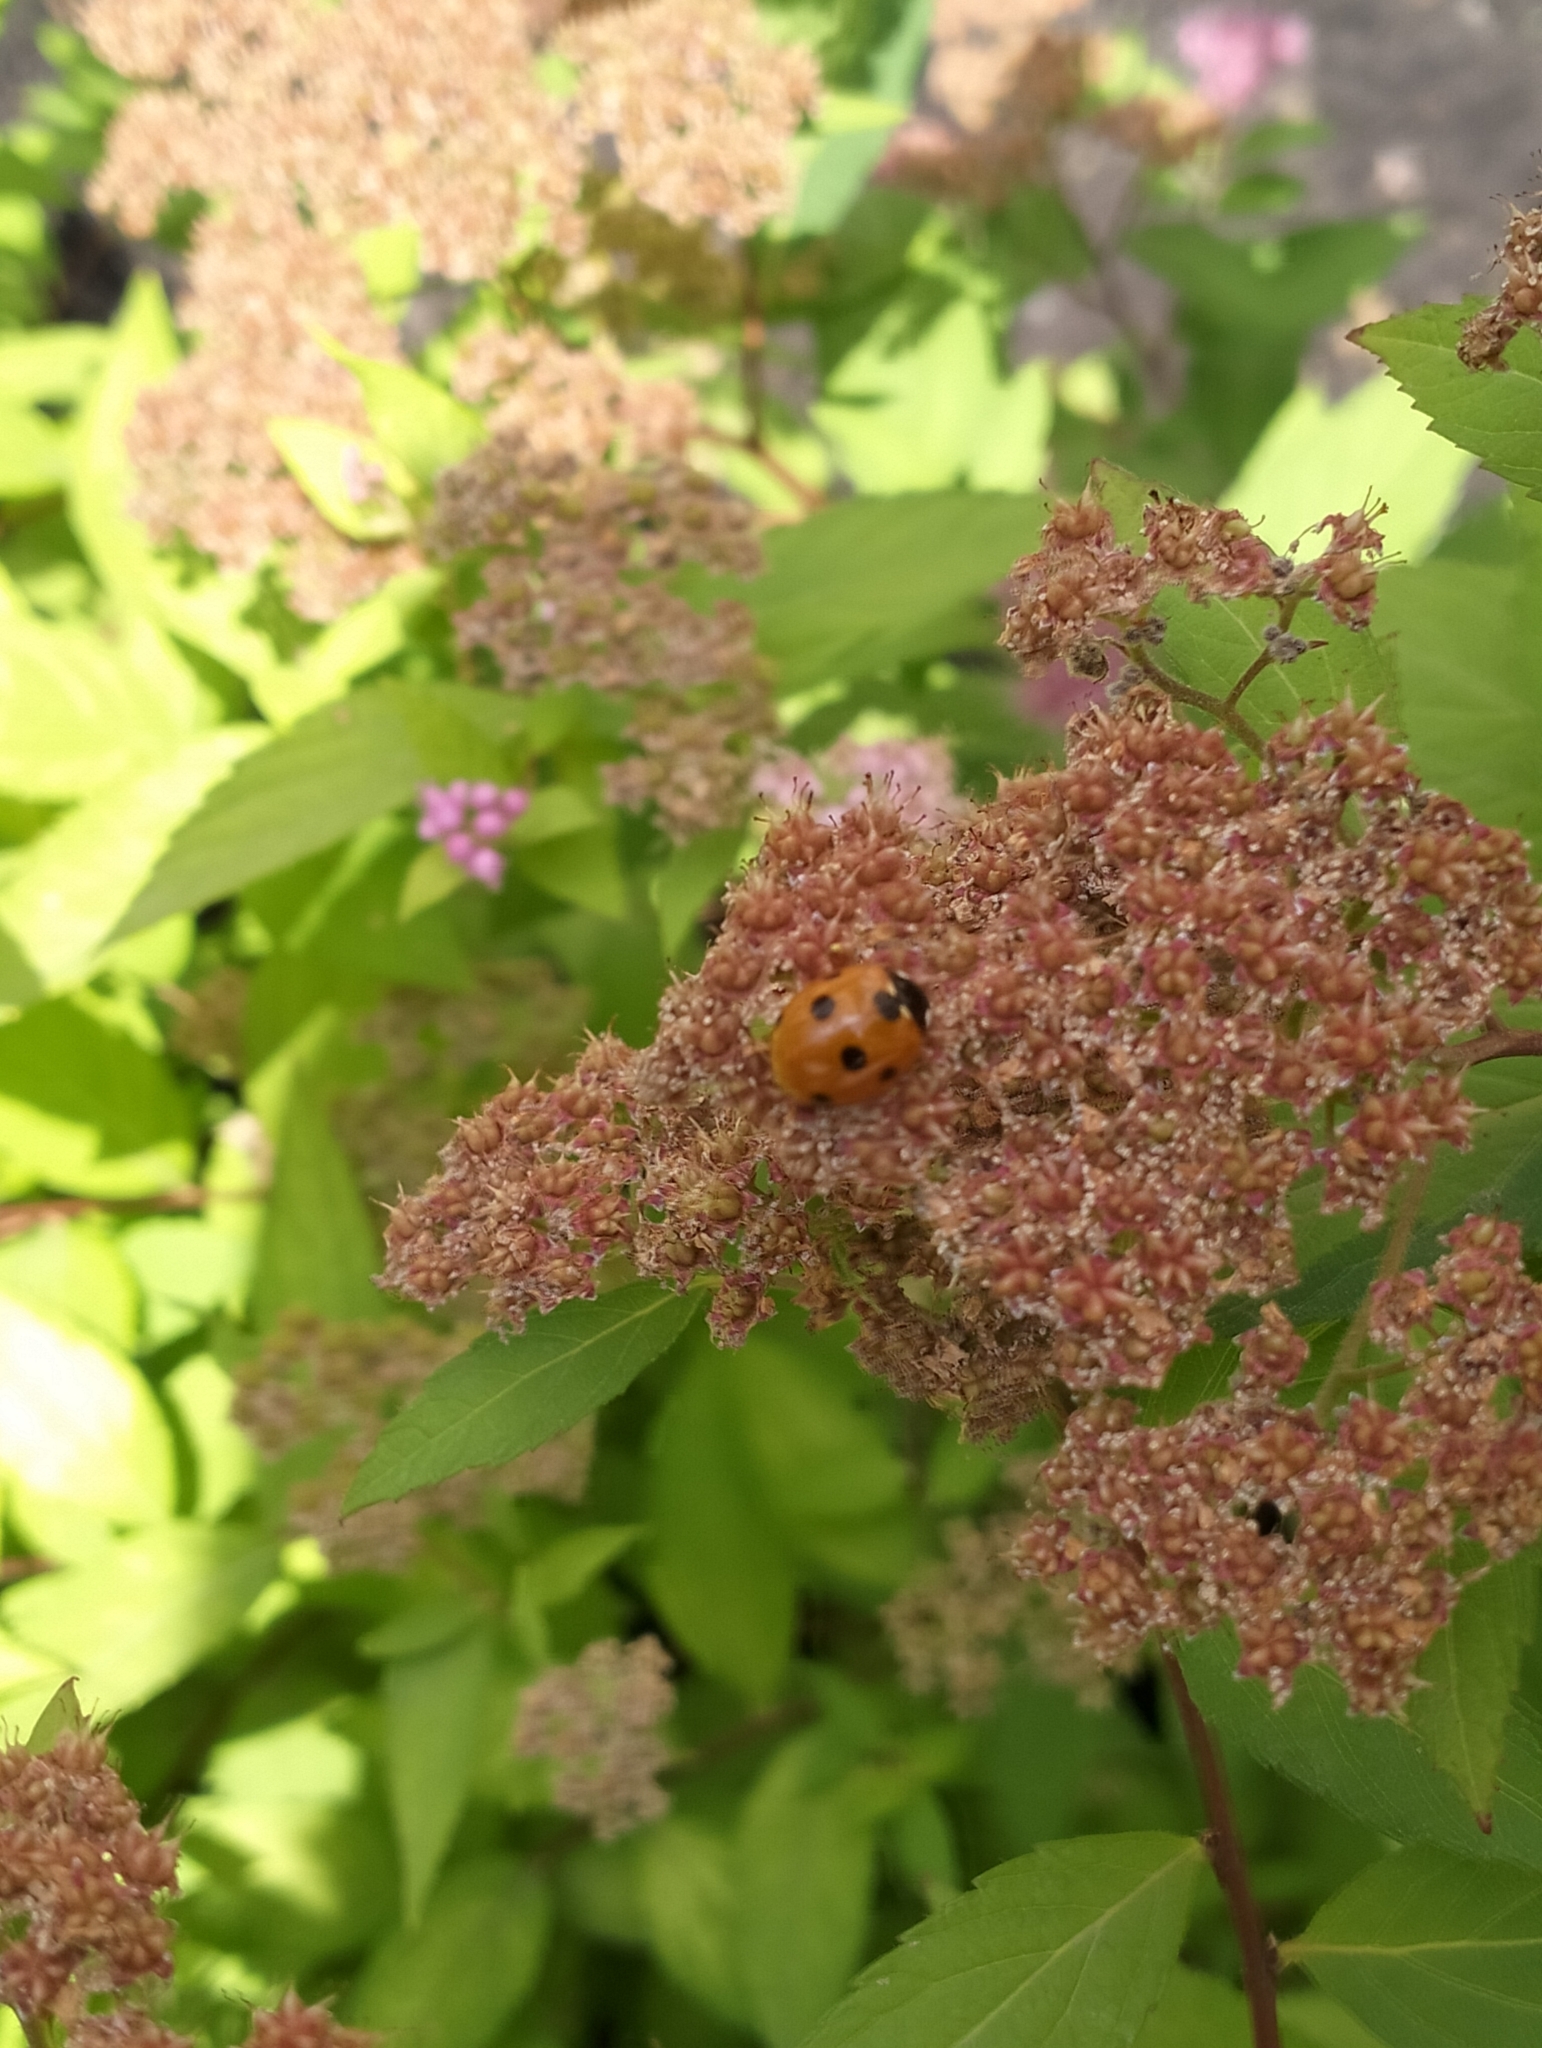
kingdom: Animalia
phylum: Arthropoda
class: Insecta
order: Coleoptera
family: Coccinellidae
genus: Coccinella
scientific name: Coccinella septempunctata
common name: Sevenspotted lady beetle
